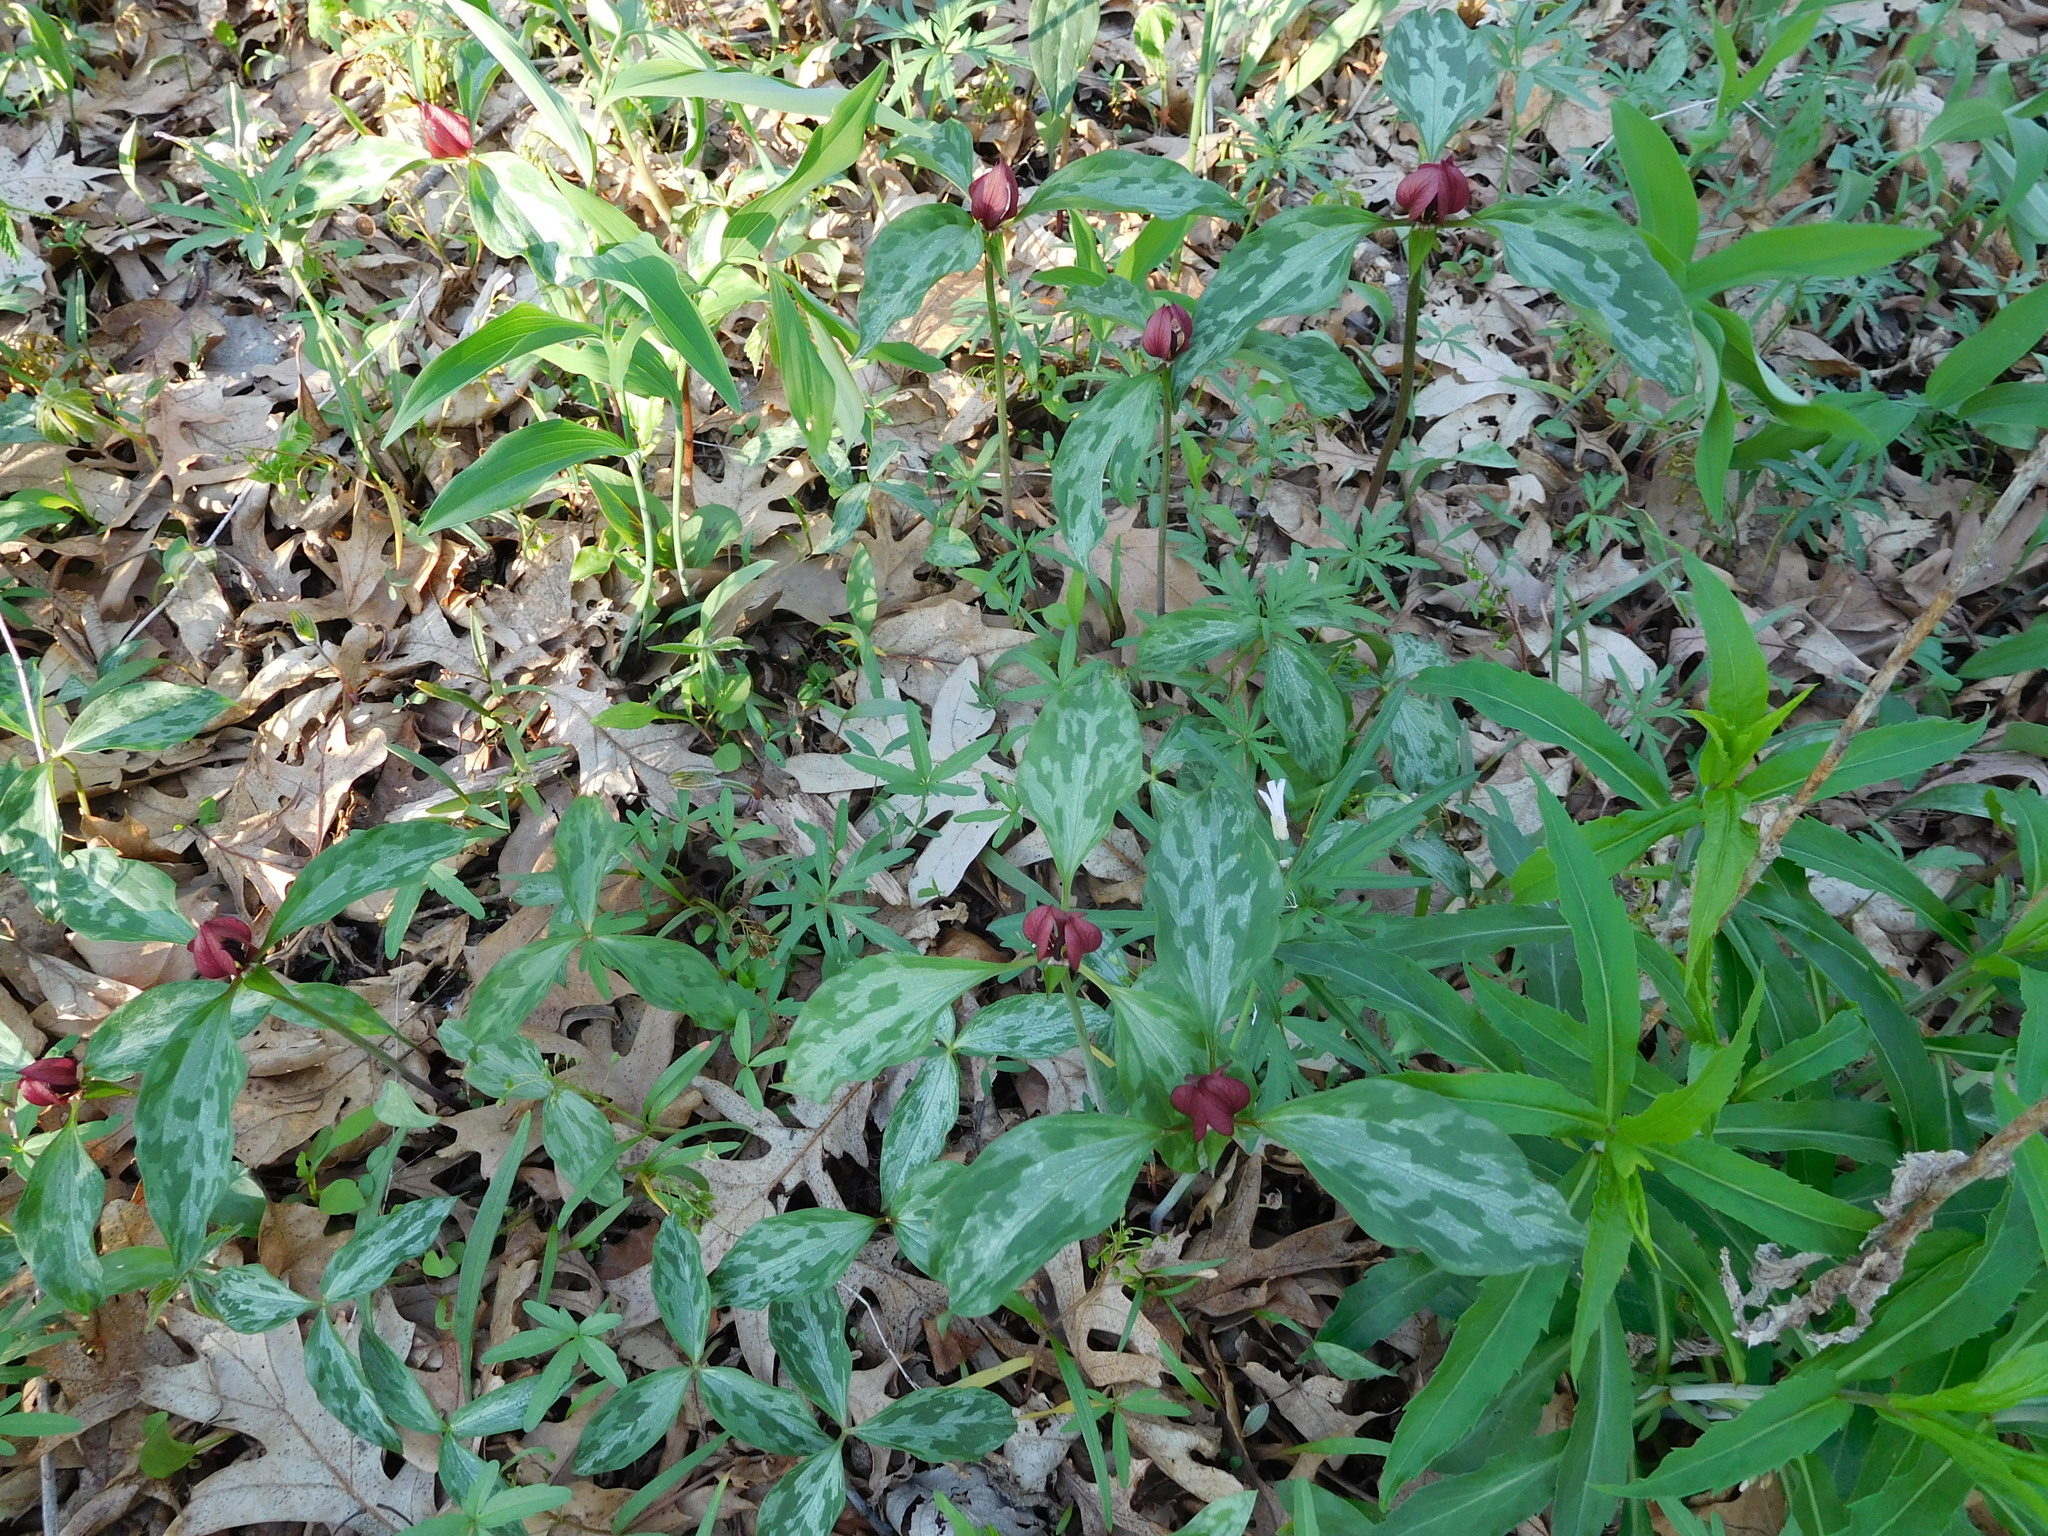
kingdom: Plantae
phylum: Tracheophyta
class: Liliopsida
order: Liliales
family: Melanthiaceae
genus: Trillium
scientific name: Trillium recurvatum
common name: Bloody butcher
